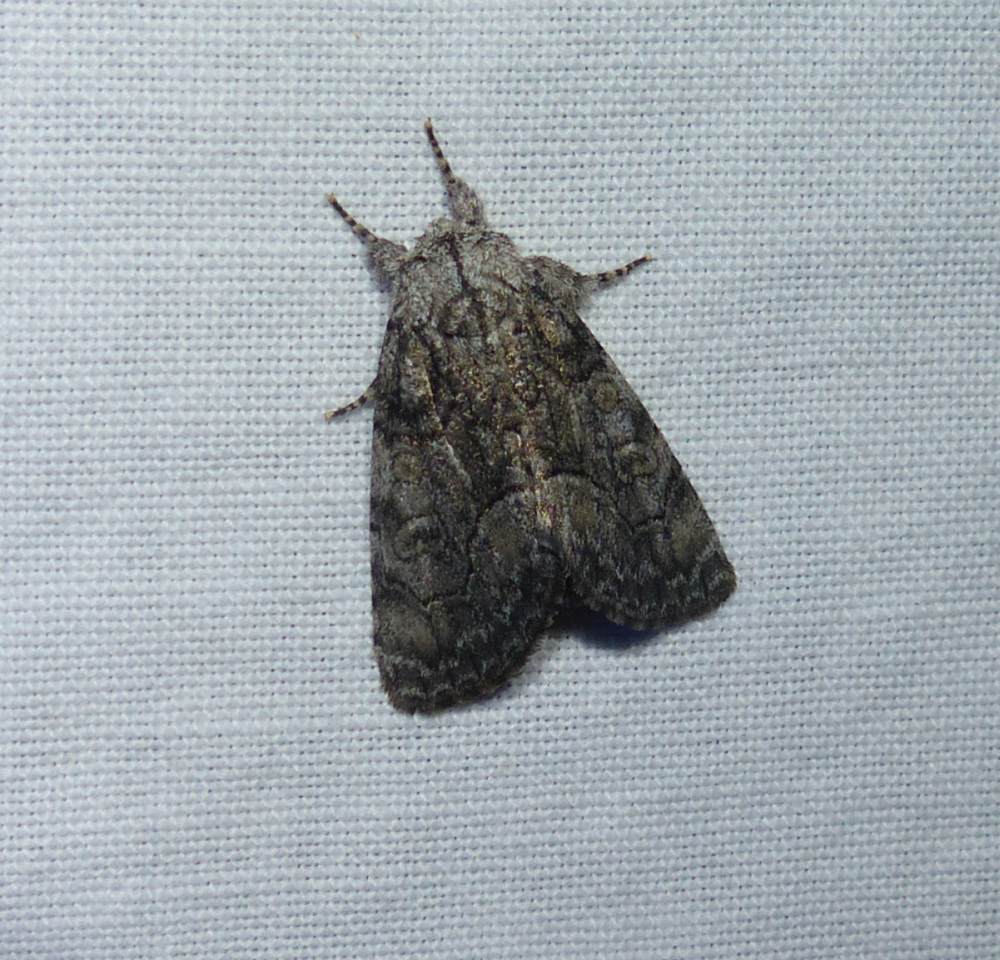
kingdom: Animalia
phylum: Arthropoda
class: Insecta
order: Lepidoptera
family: Noctuidae
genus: Raphia
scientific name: Raphia frater
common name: Brother
